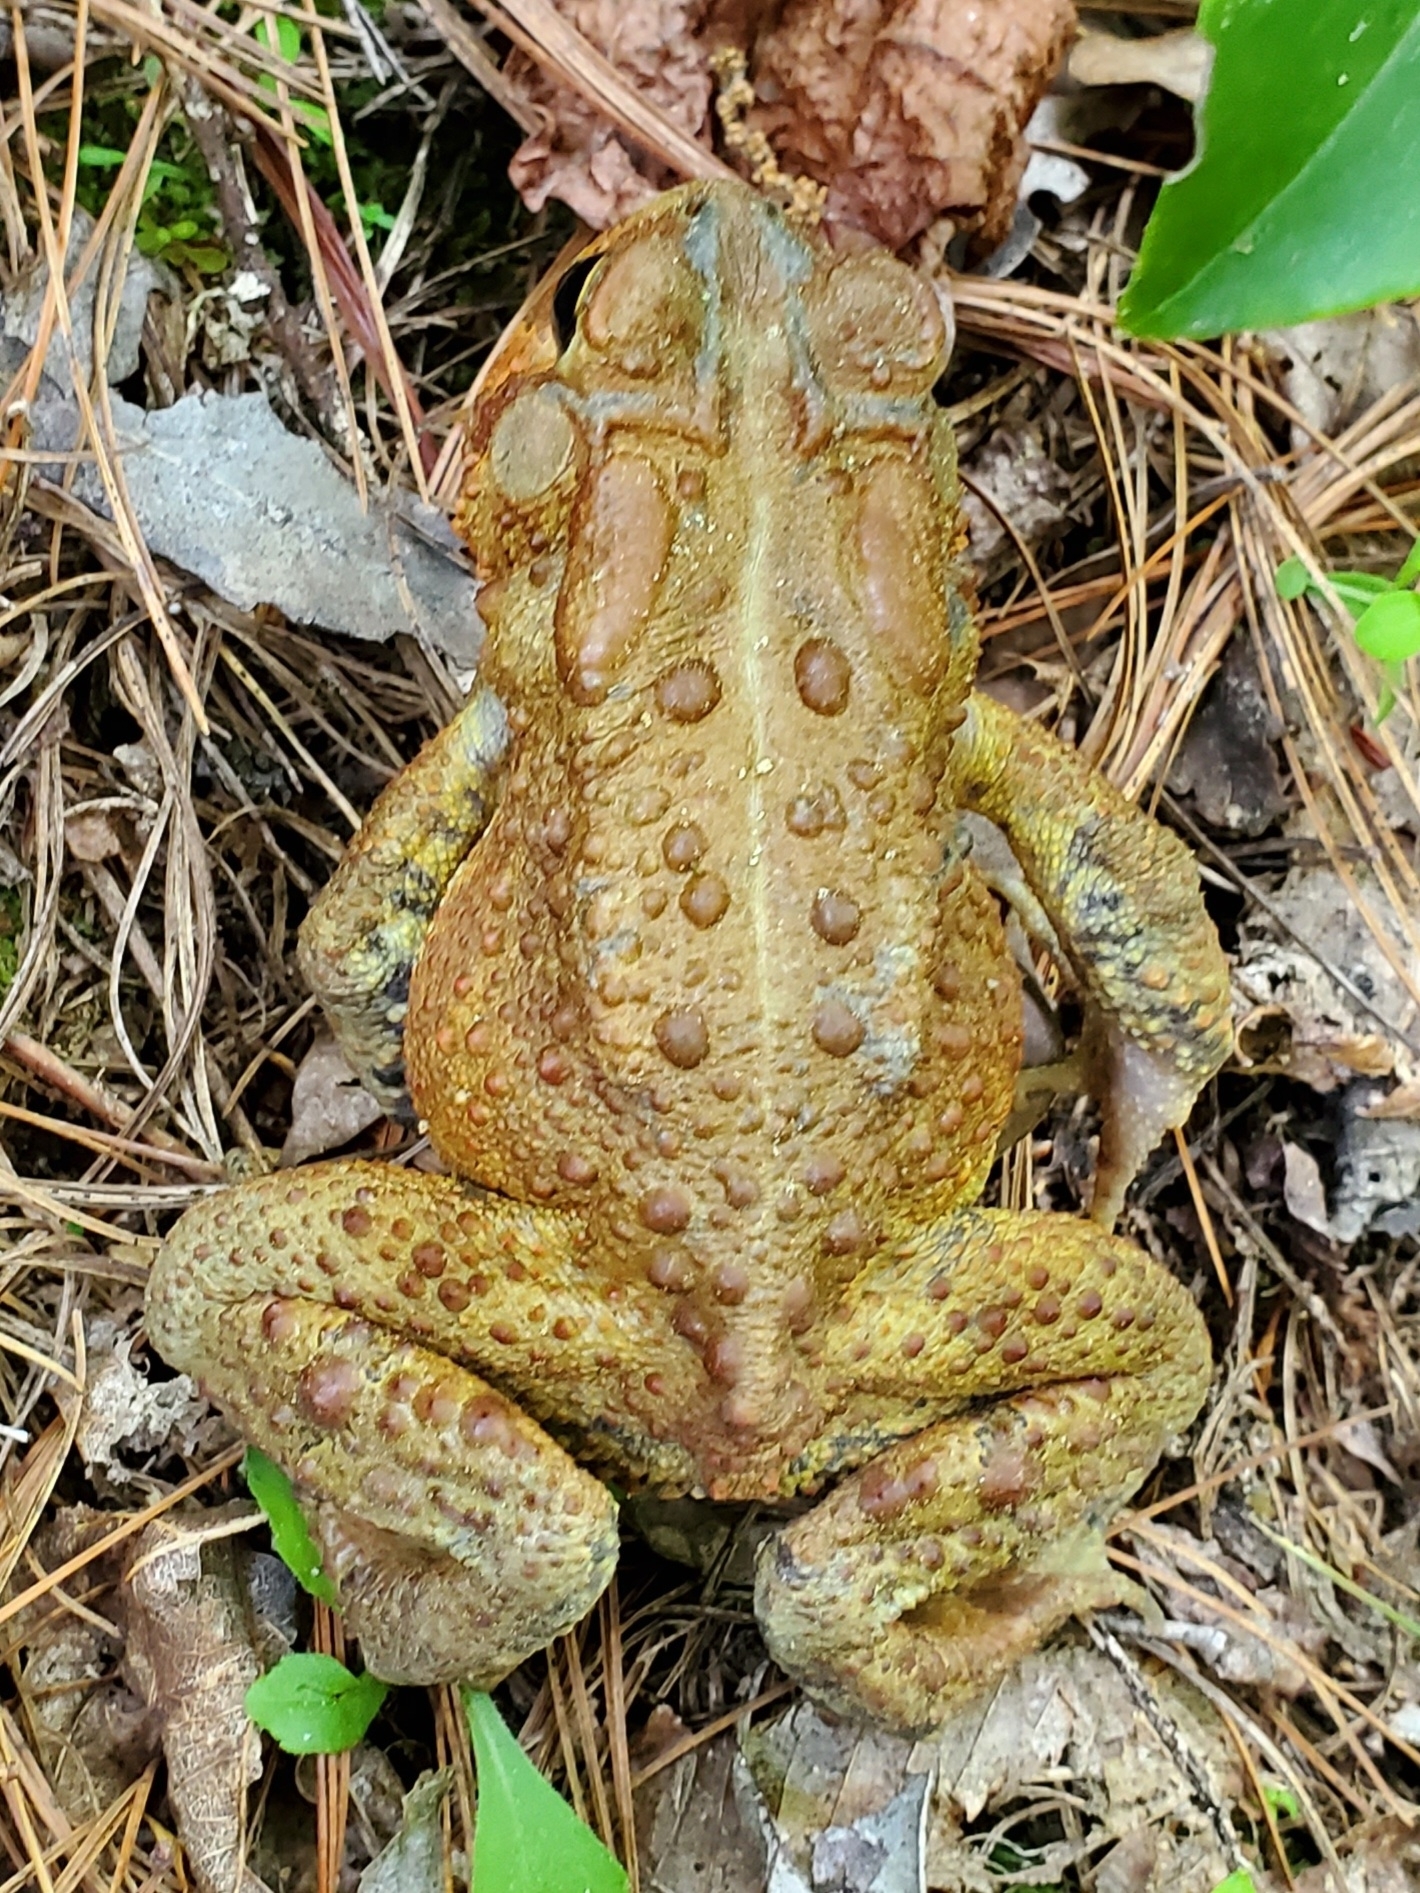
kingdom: Animalia
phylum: Chordata
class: Amphibia
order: Anura
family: Bufonidae
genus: Anaxyrus
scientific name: Anaxyrus americanus
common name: American toad
